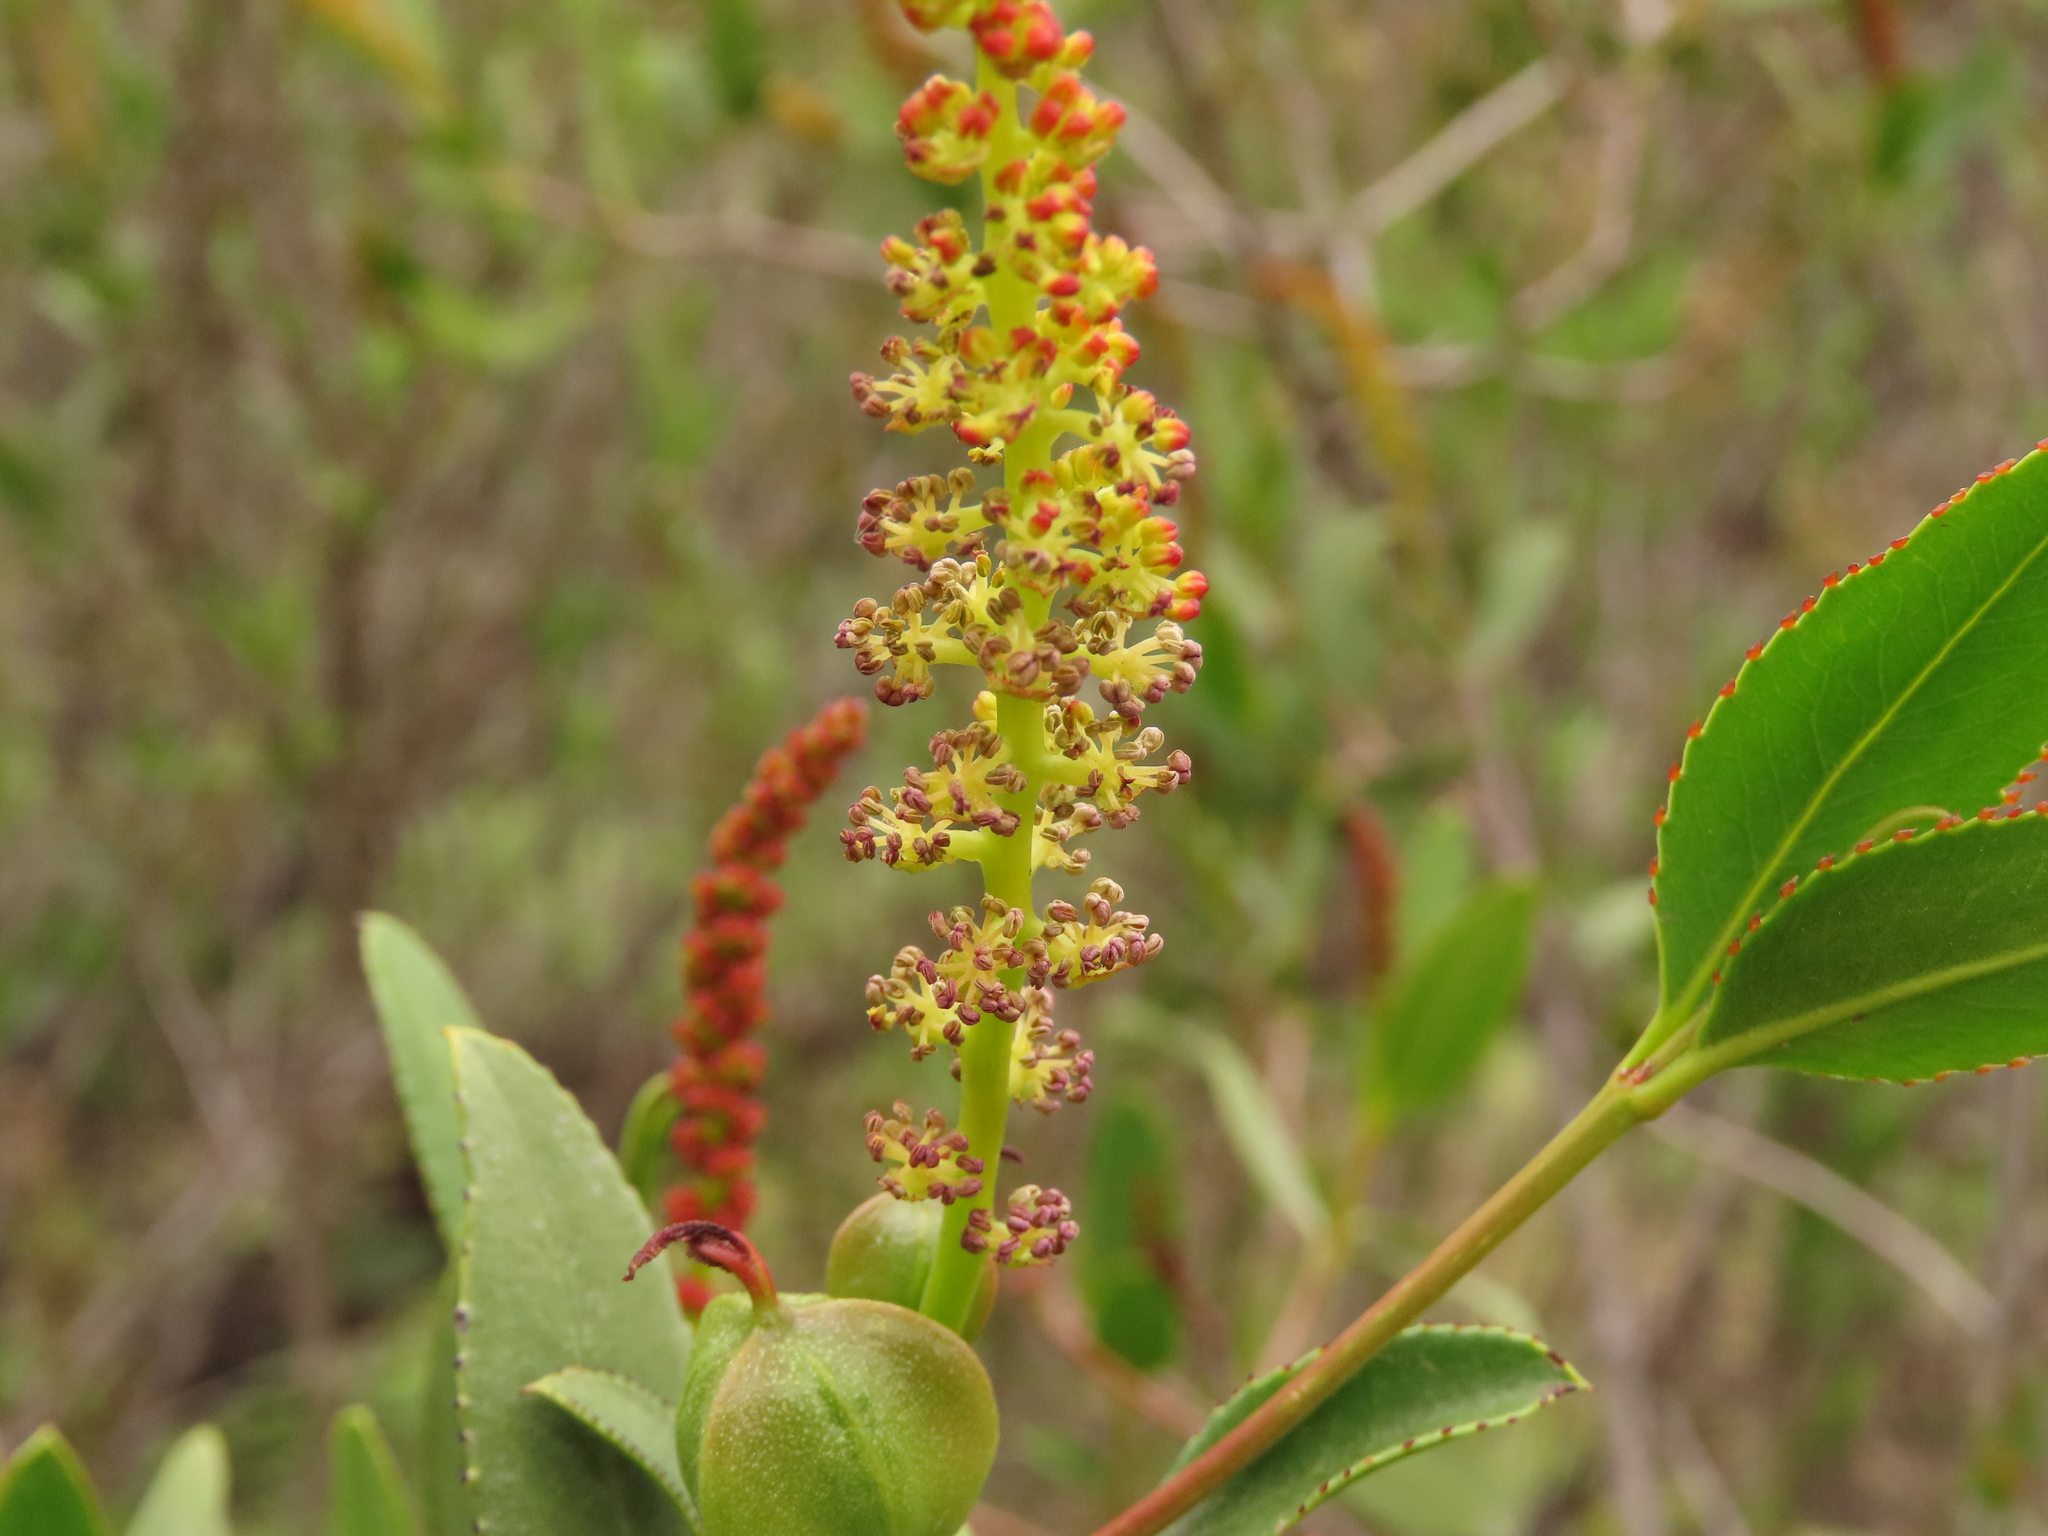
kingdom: Plantae
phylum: Tracheophyta
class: Magnoliopsida
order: Malpighiales
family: Euphorbiaceae
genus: Colliguaja
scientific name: Colliguaja odorifera
